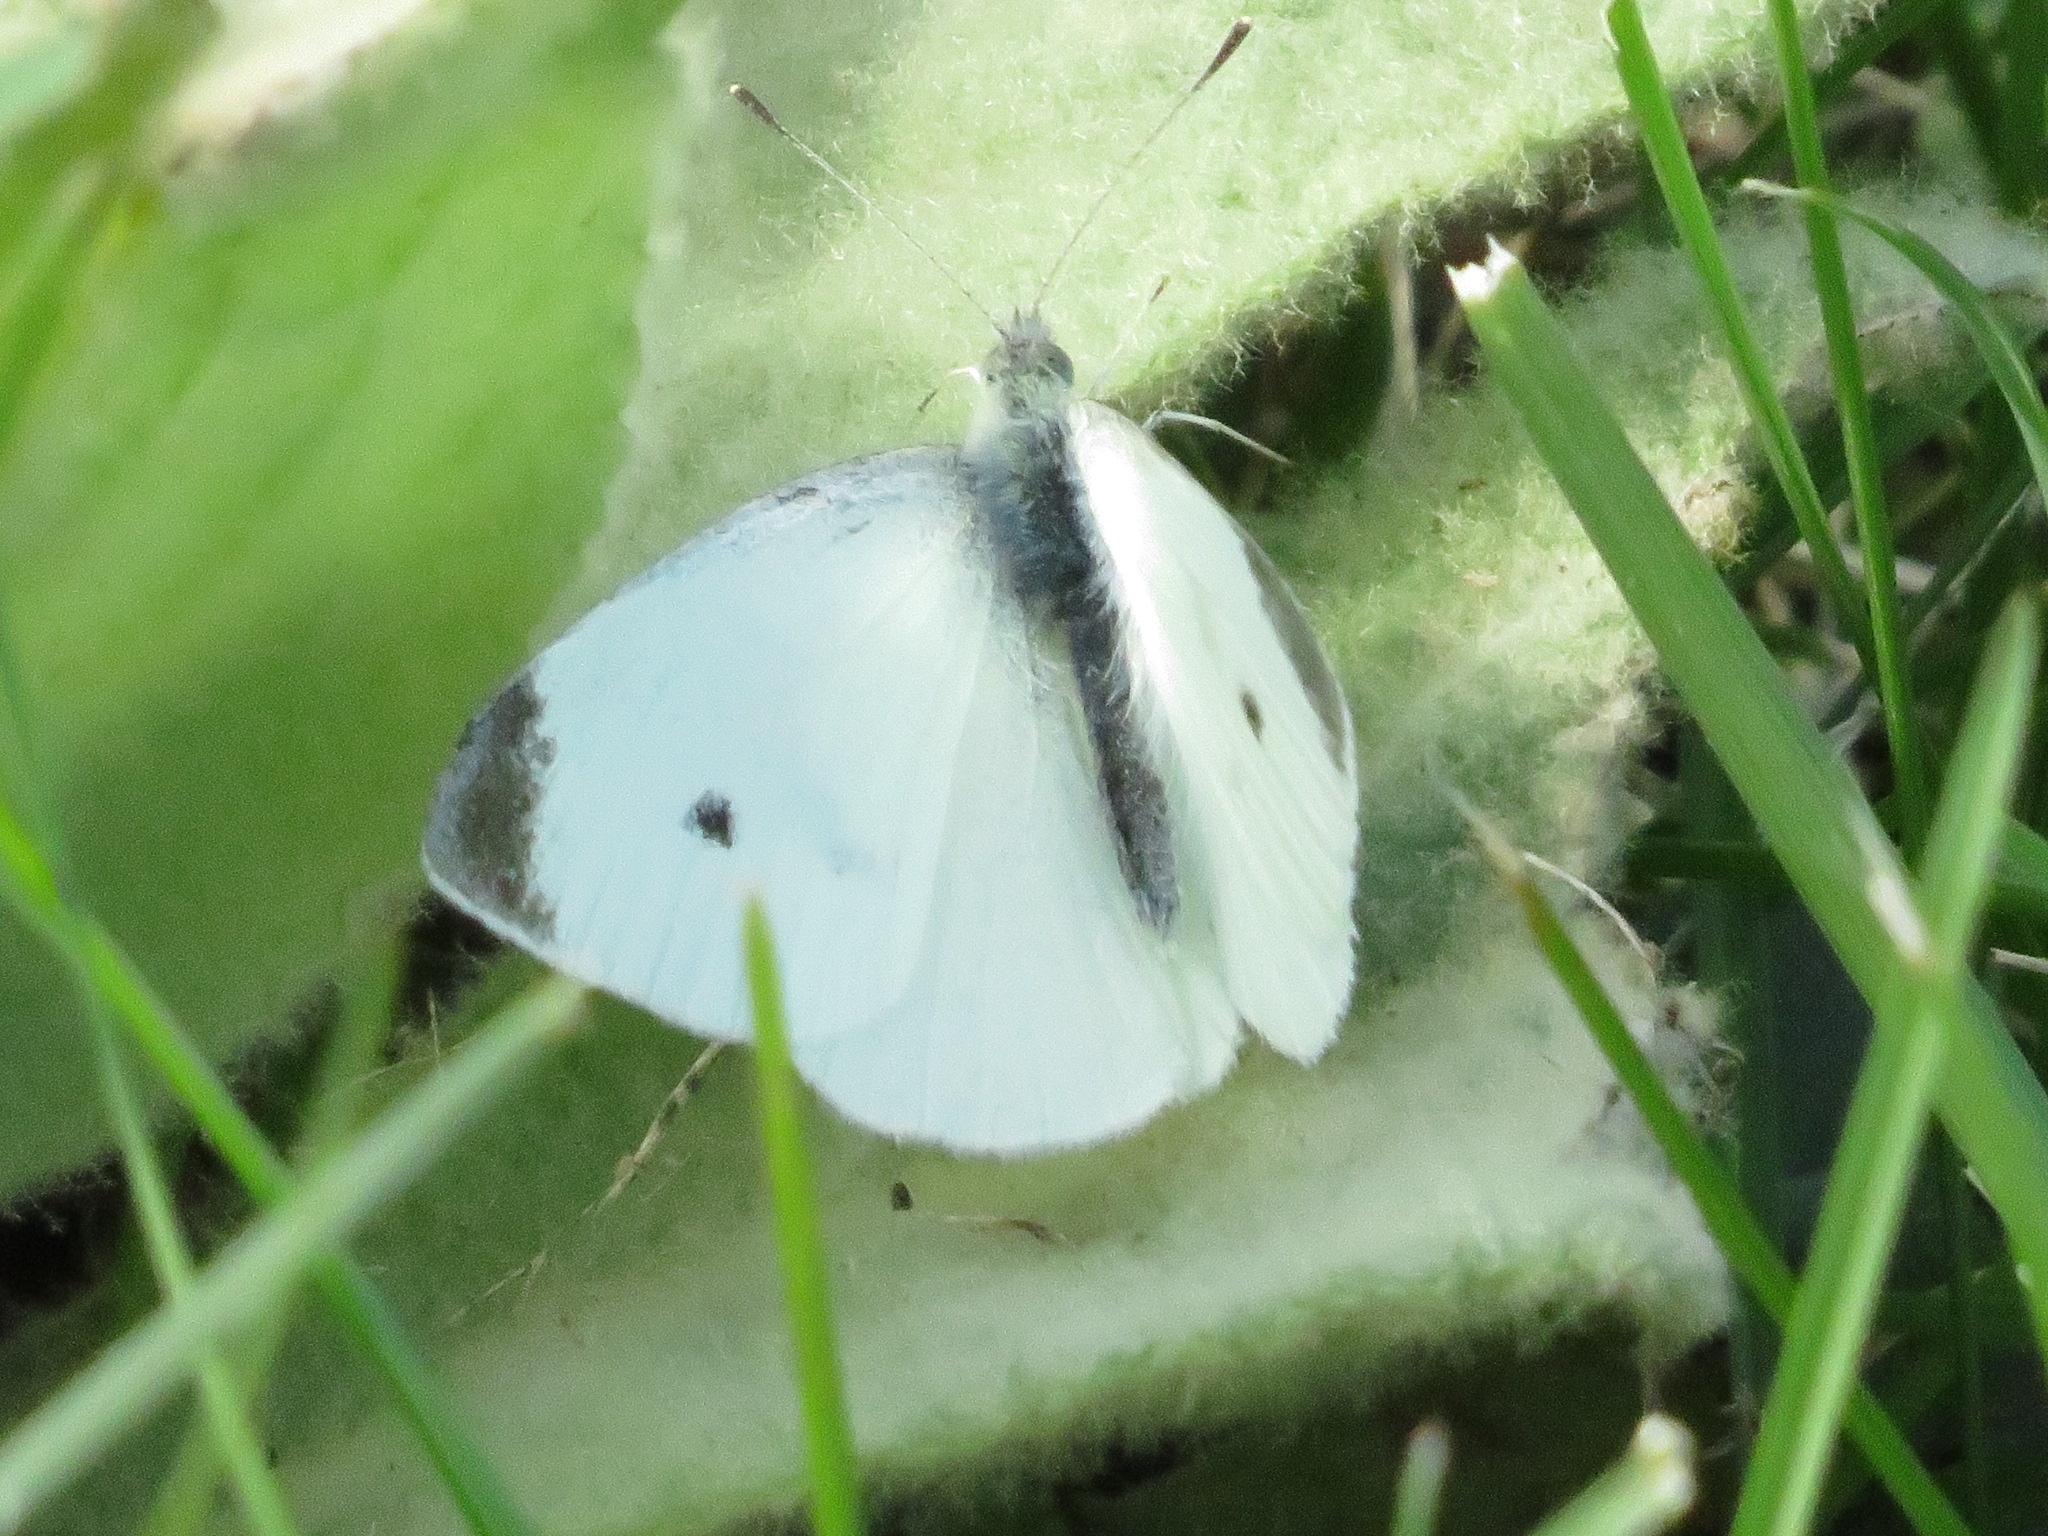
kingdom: Animalia
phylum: Arthropoda
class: Insecta
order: Lepidoptera
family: Pieridae
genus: Pieris
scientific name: Pieris rapae
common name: Small white
